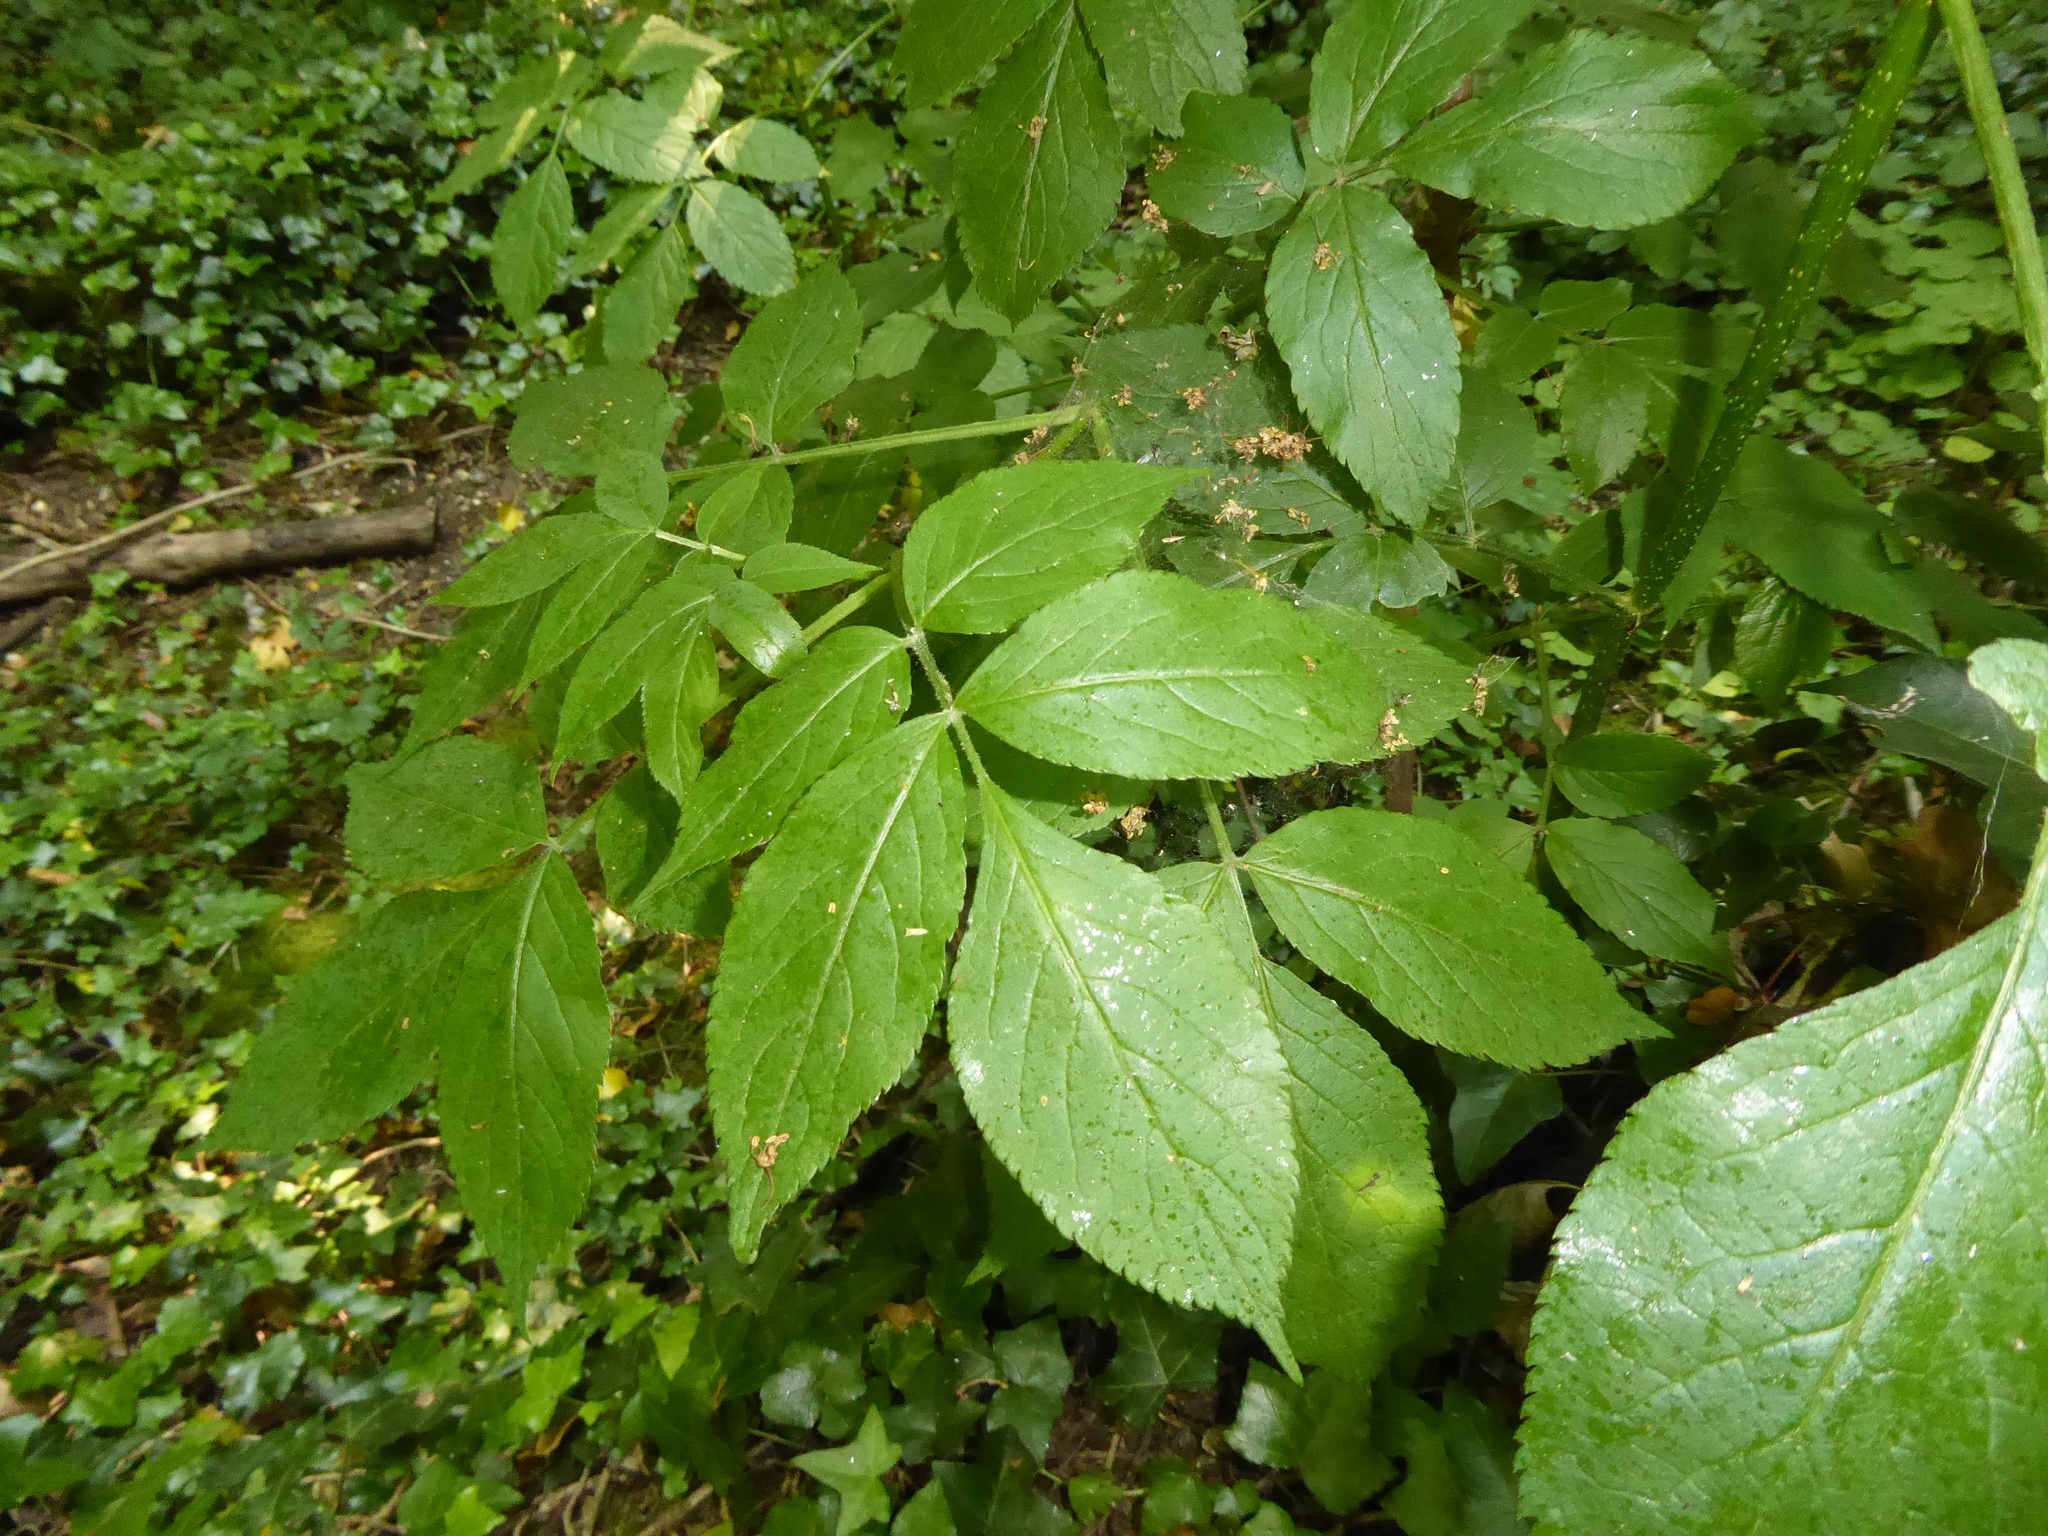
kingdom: Plantae
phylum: Tracheophyta
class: Magnoliopsida
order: Lamiales
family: Oleaceae
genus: Fraxinus
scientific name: Fraxinus excelsior
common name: European ash
